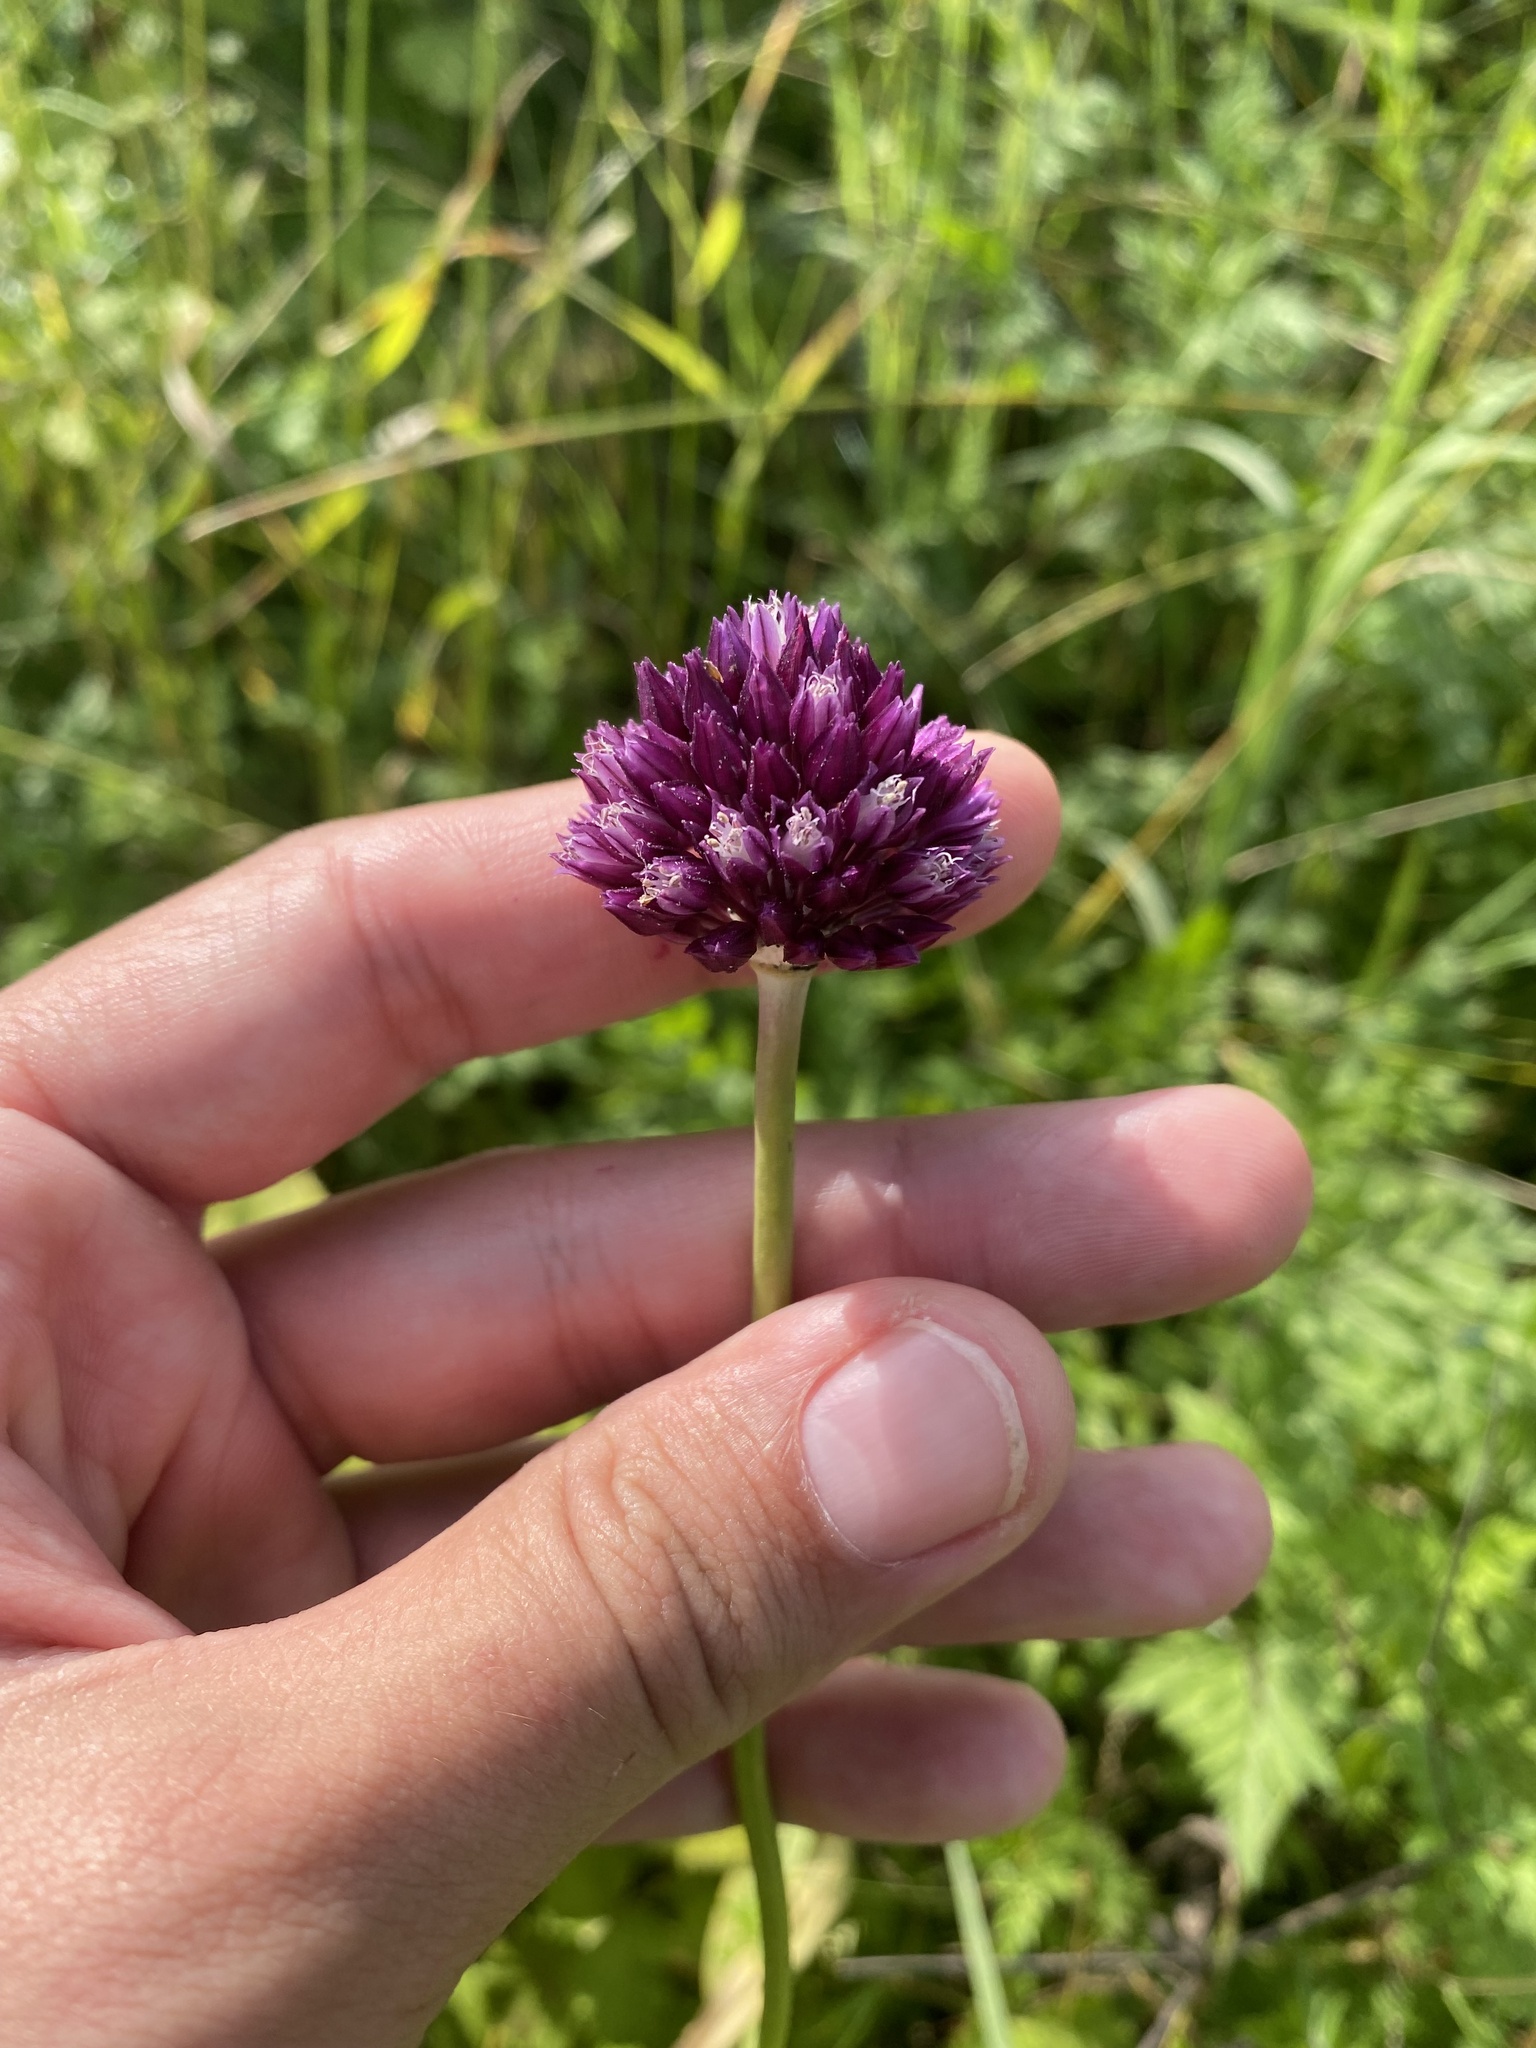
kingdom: Plantae
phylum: Tracheophyta
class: Liliopsida
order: Asparagales
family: Amaryllidaceae
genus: Allium
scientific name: Allium rotundum
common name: Sand leek
